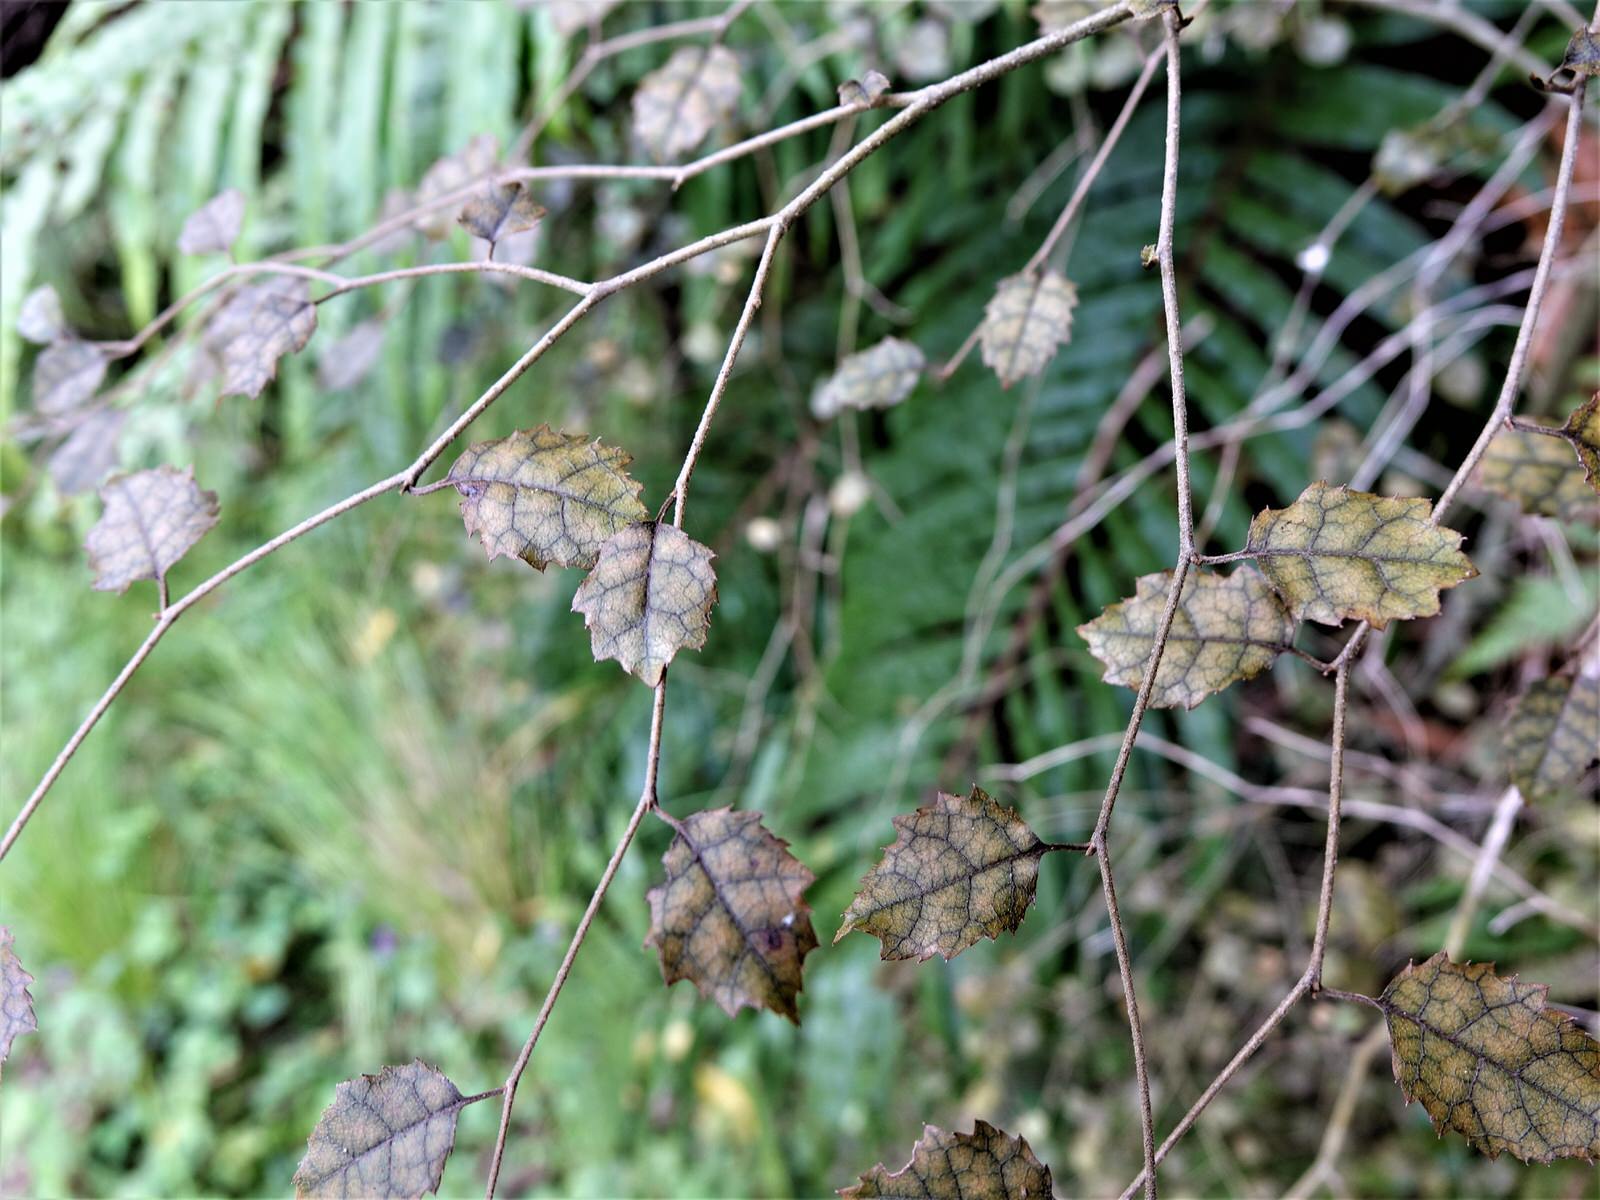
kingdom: Plantae
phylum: Tracheophyta
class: Magnoliopsida
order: Asterales
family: Rousseaceae
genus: Carpodetus
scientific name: Carpodetus serratus
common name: White mapau
